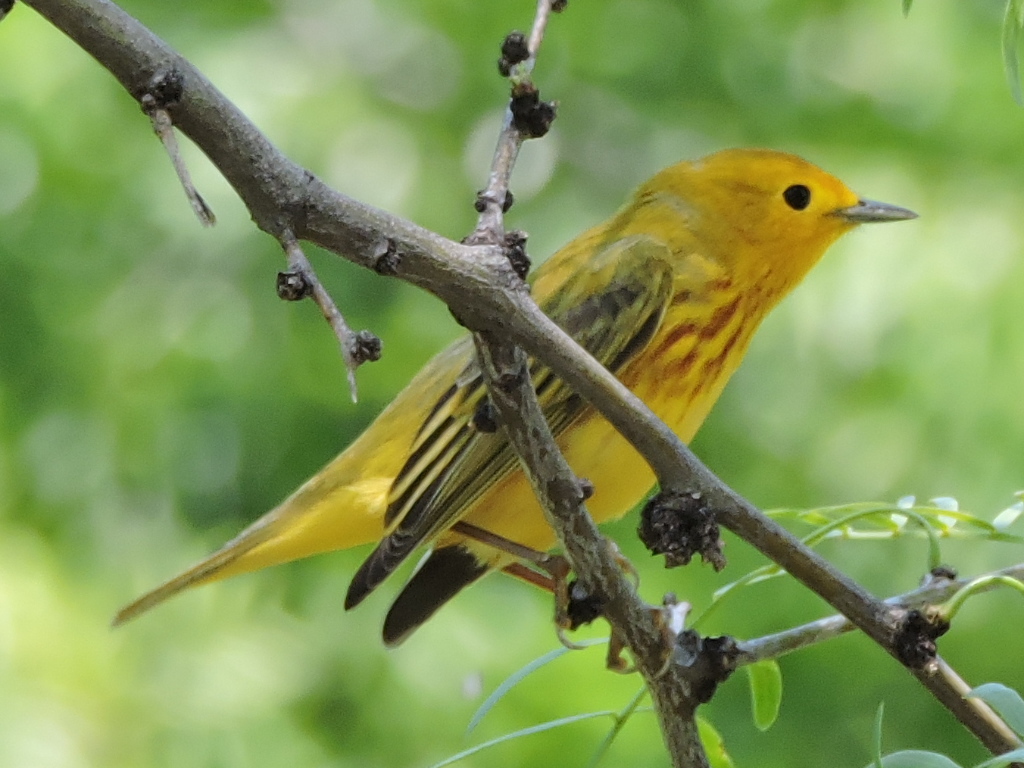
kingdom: Animalia
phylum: Chordata
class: Aves
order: Passeriformes
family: Parulidae
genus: Setophaga
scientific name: Setophaga petechia
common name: Yellow warbler
